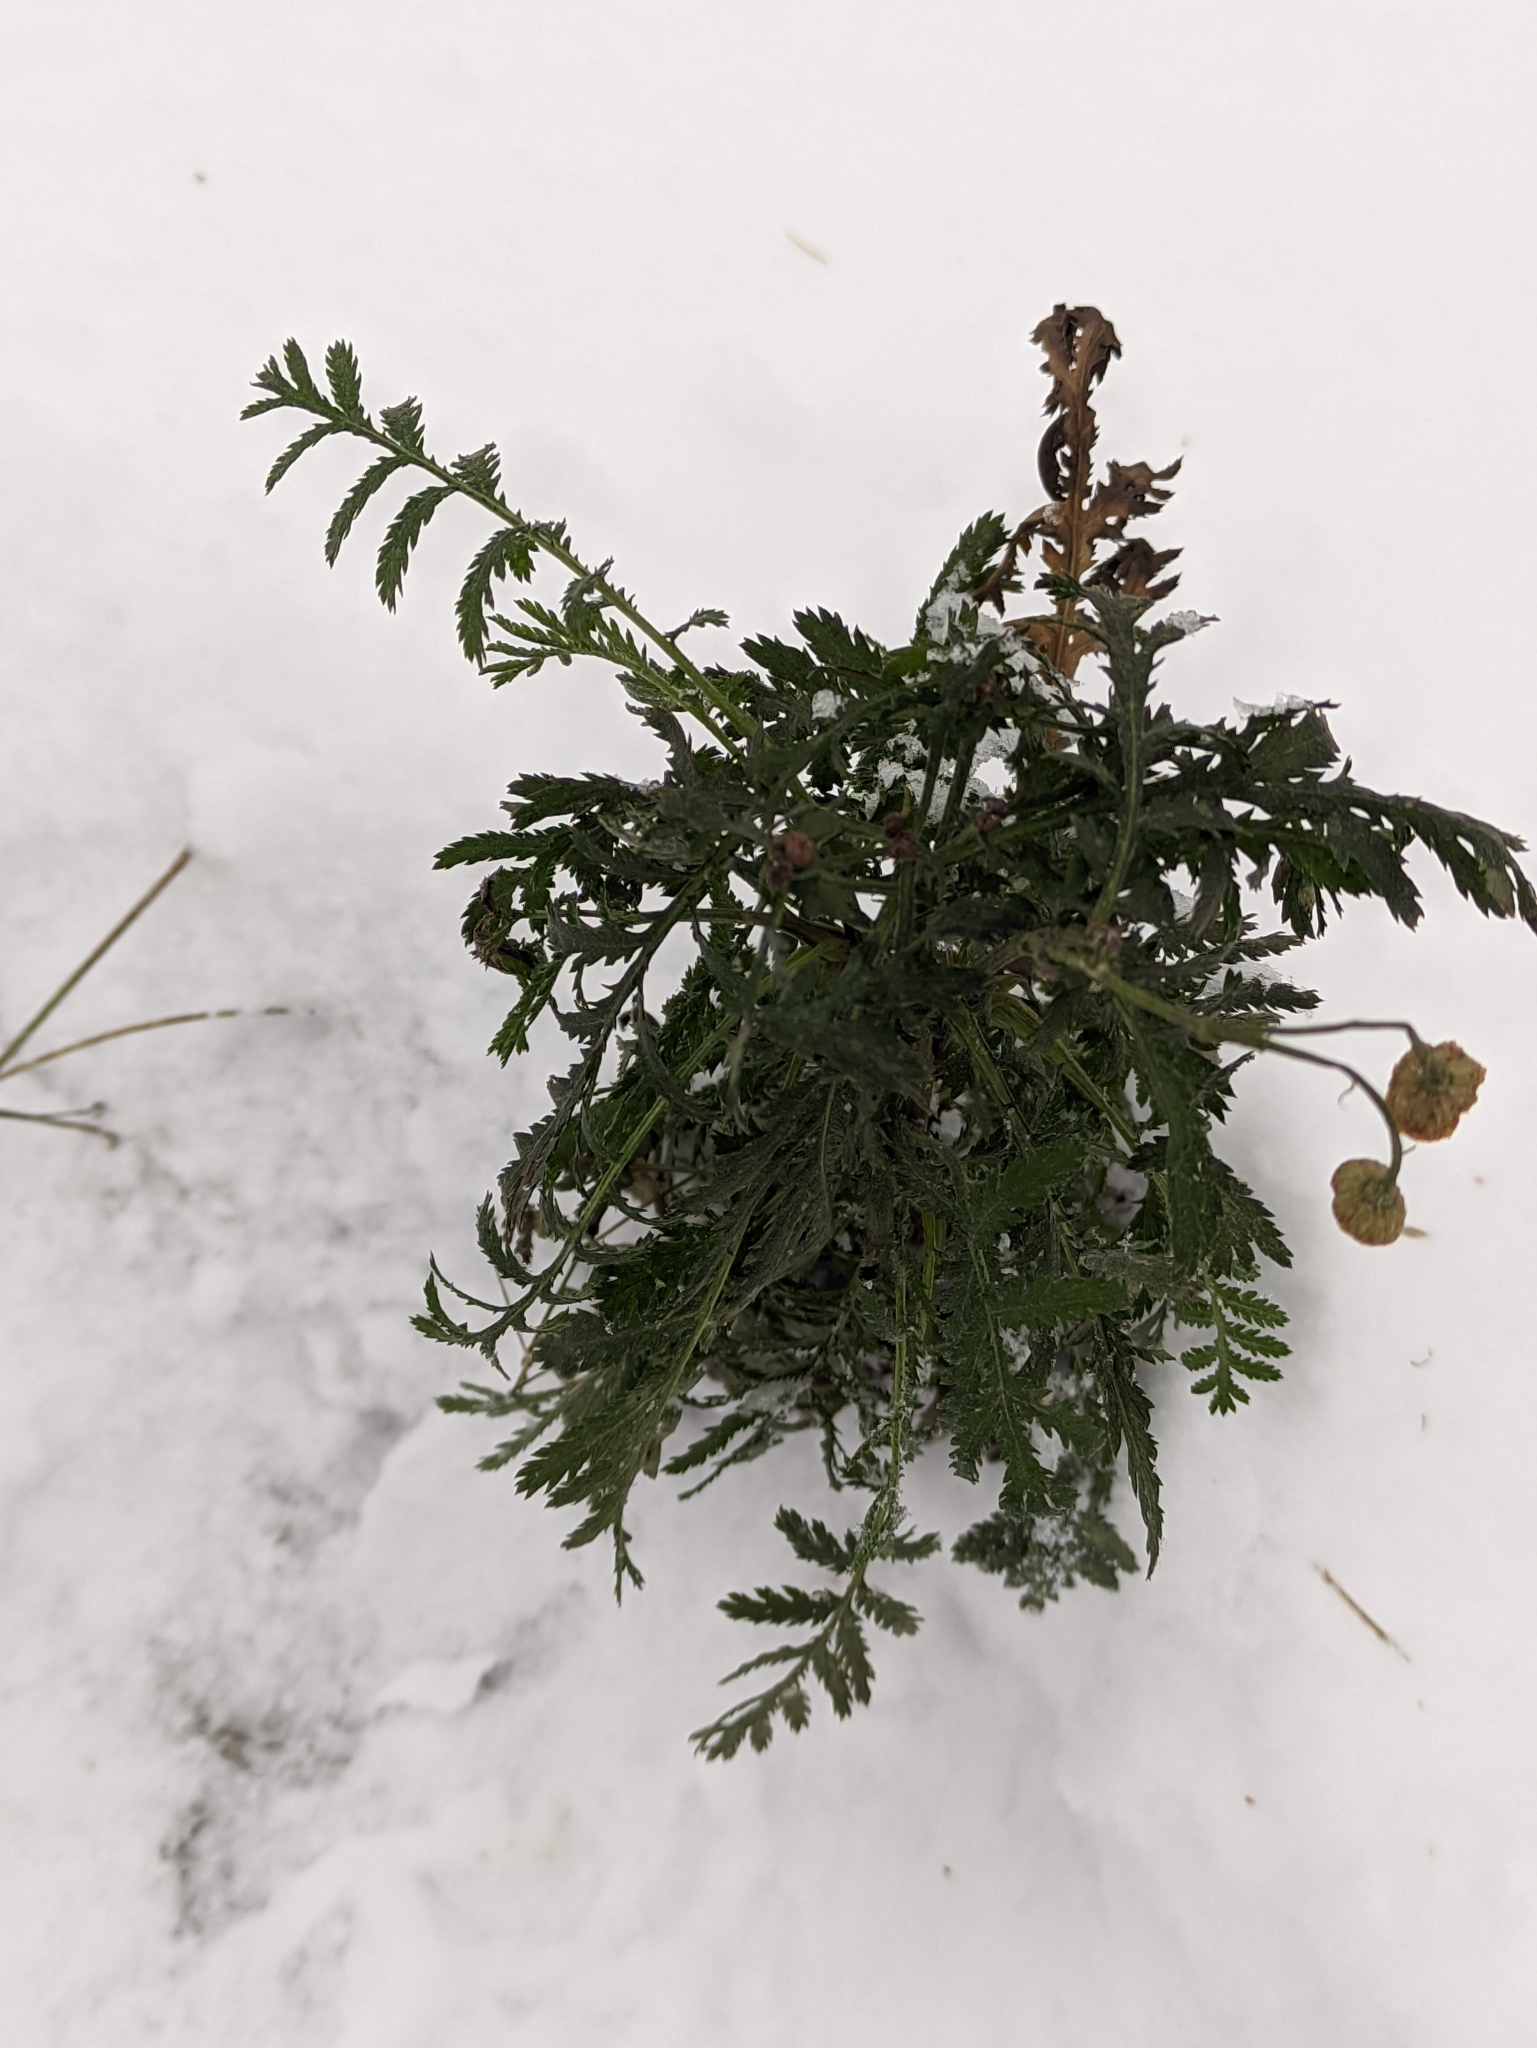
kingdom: Plantae
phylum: Tracheophyta
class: Magnoliopsida
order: Asterales
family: Asteraceae
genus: Tanacetum
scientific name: Tanacetum vulgare
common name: Common tansy
